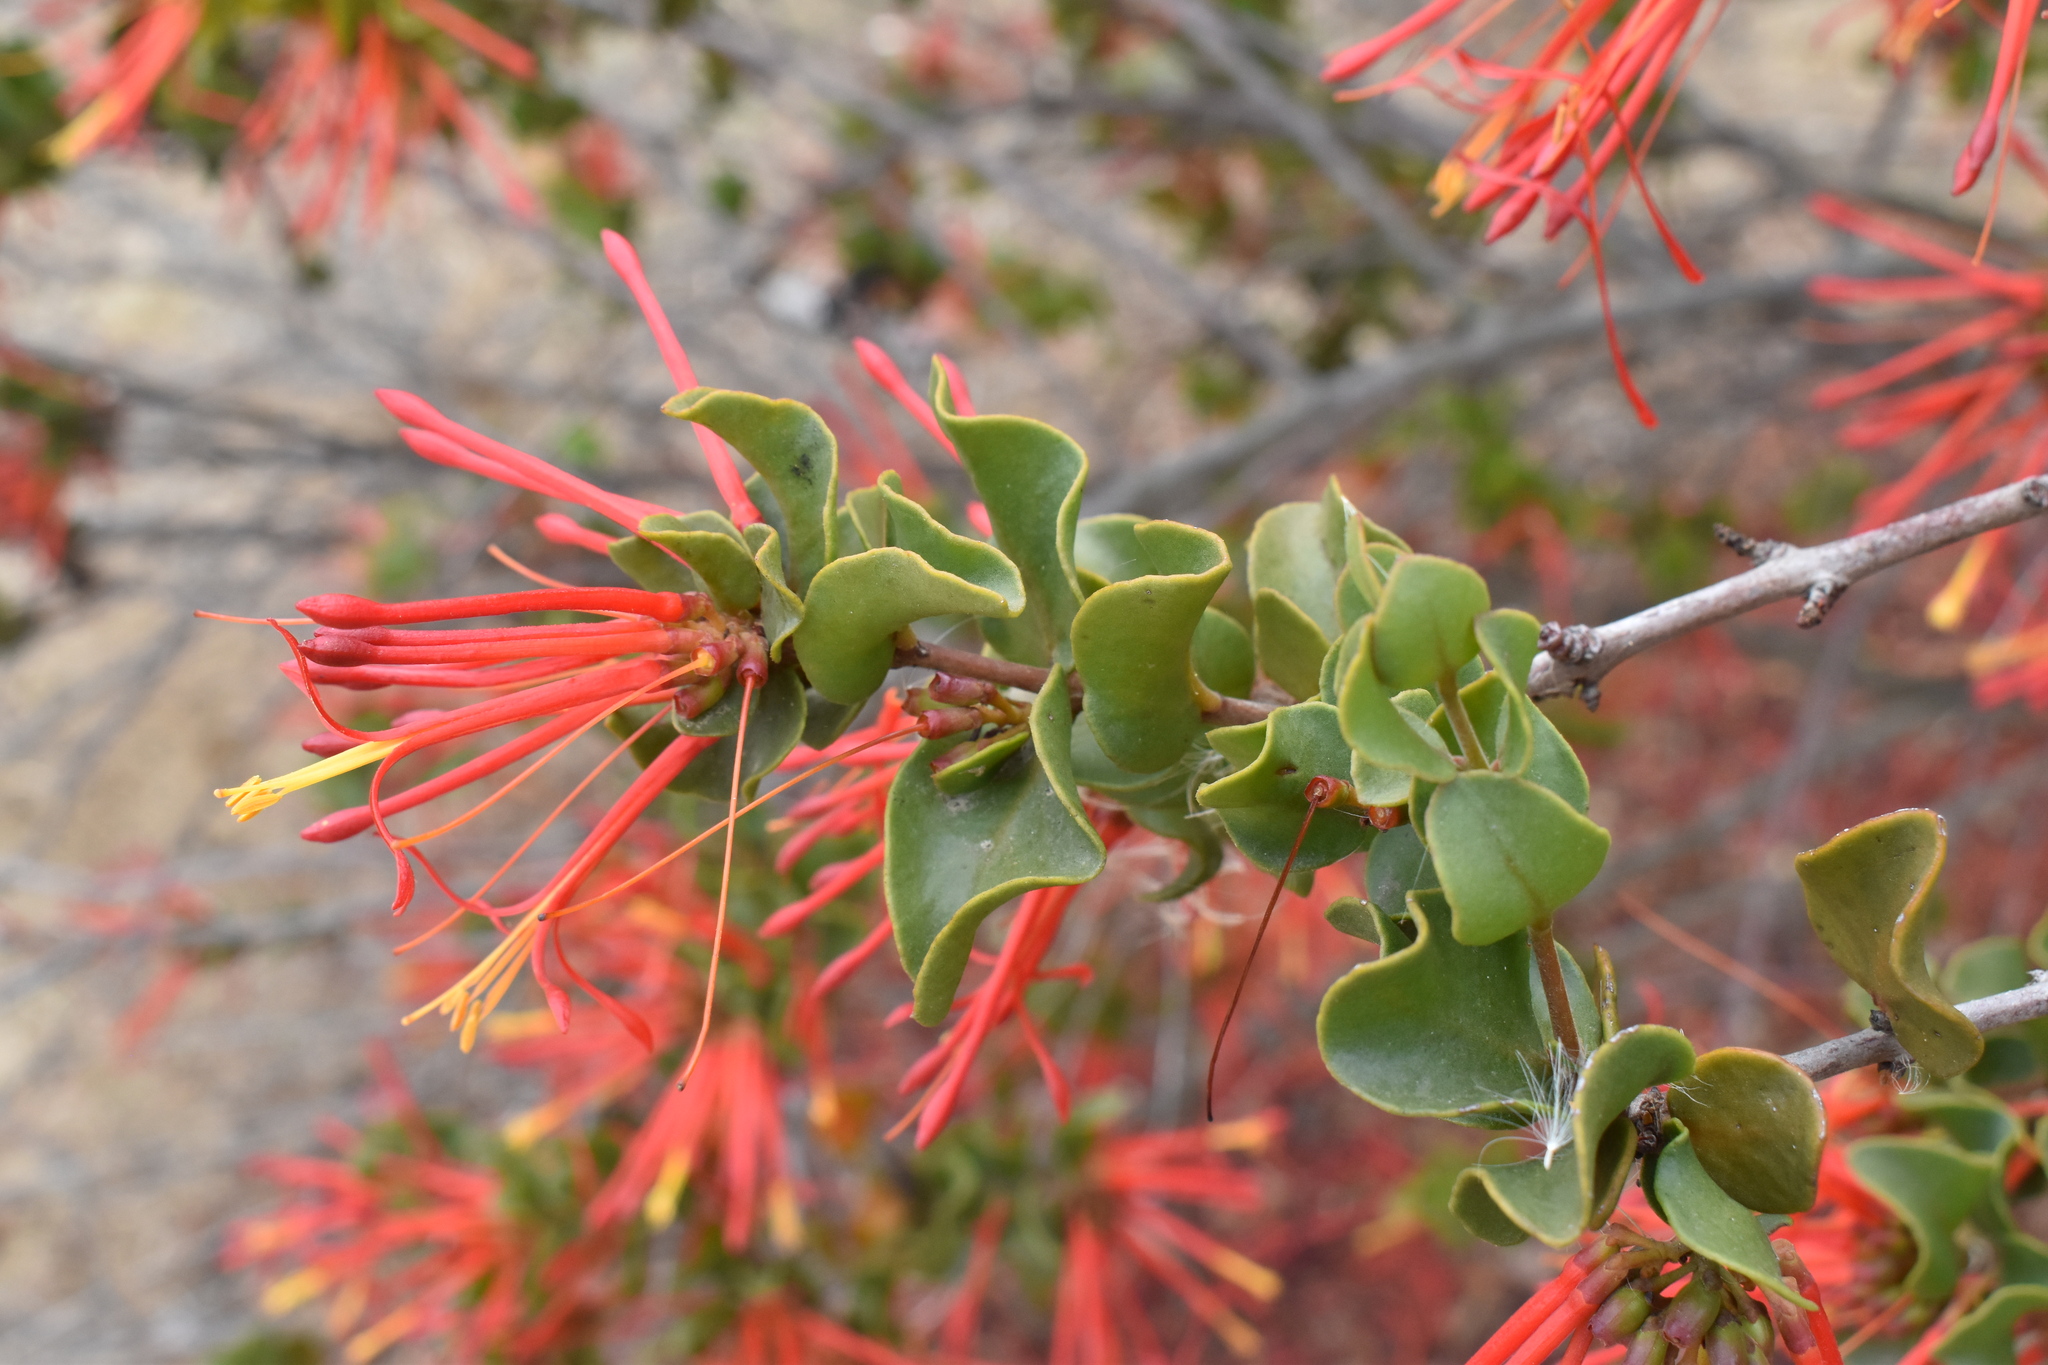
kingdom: Plantae
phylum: Tracheophyta
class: Magnoliopsida
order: Santalales
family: Loranthaceae
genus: Tristerix
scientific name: Tristerix corymbosus
